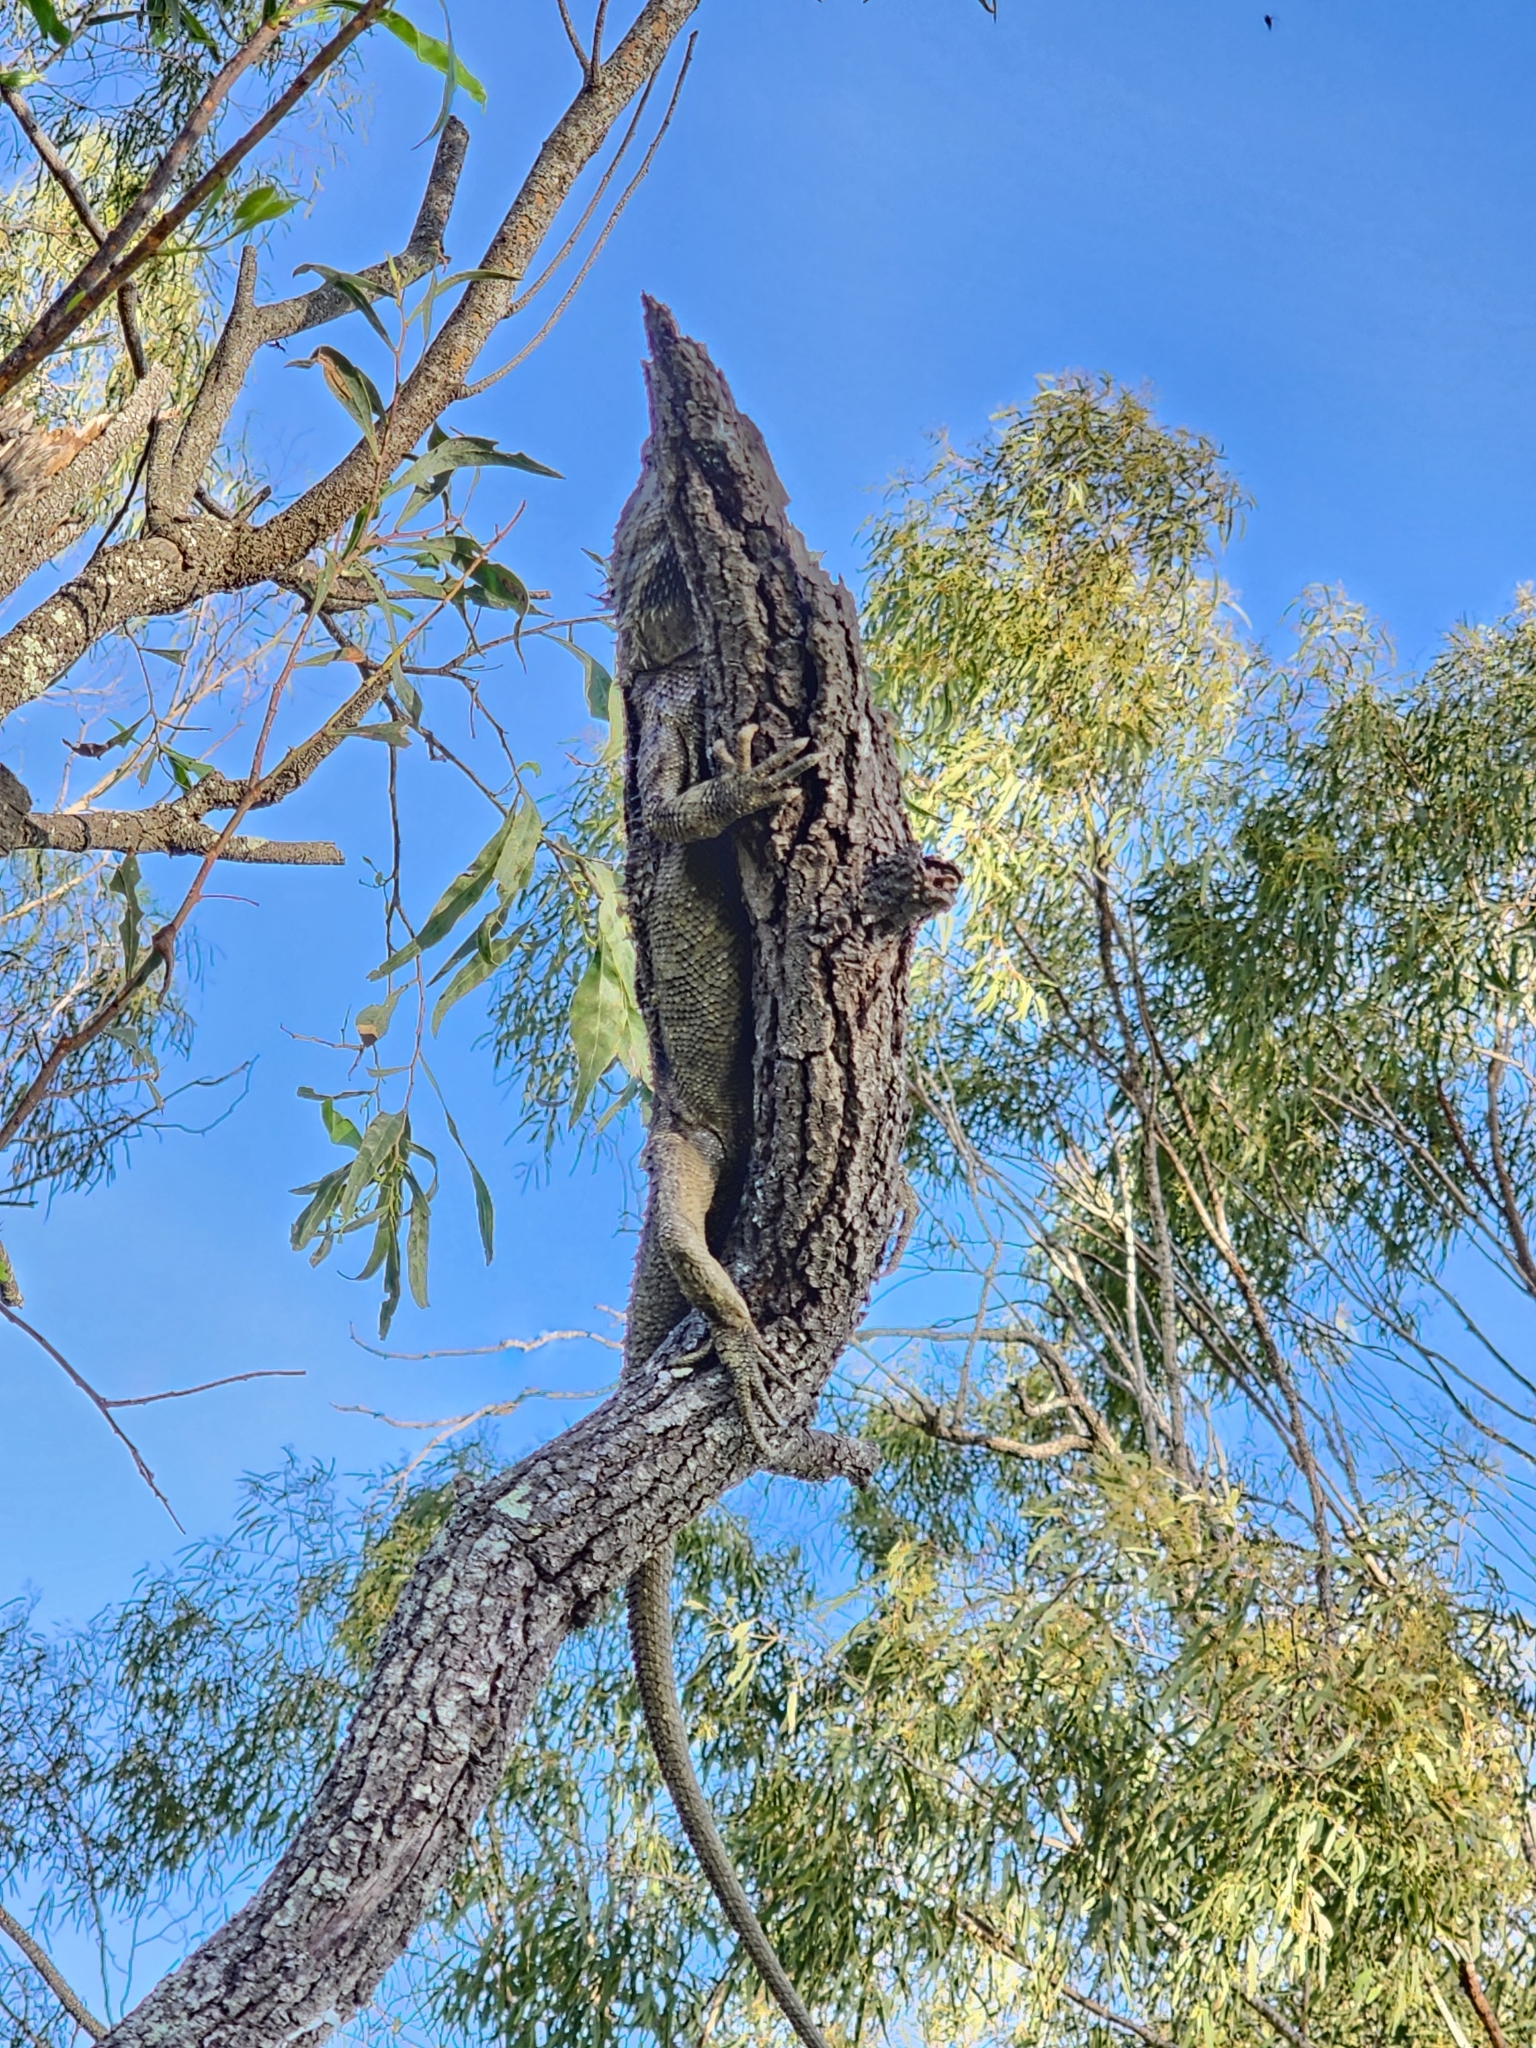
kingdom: Animalia
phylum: Chordata
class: Squamata
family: Agamidae
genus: Pogona
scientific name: Pogona barbata
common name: Bearded dragon
